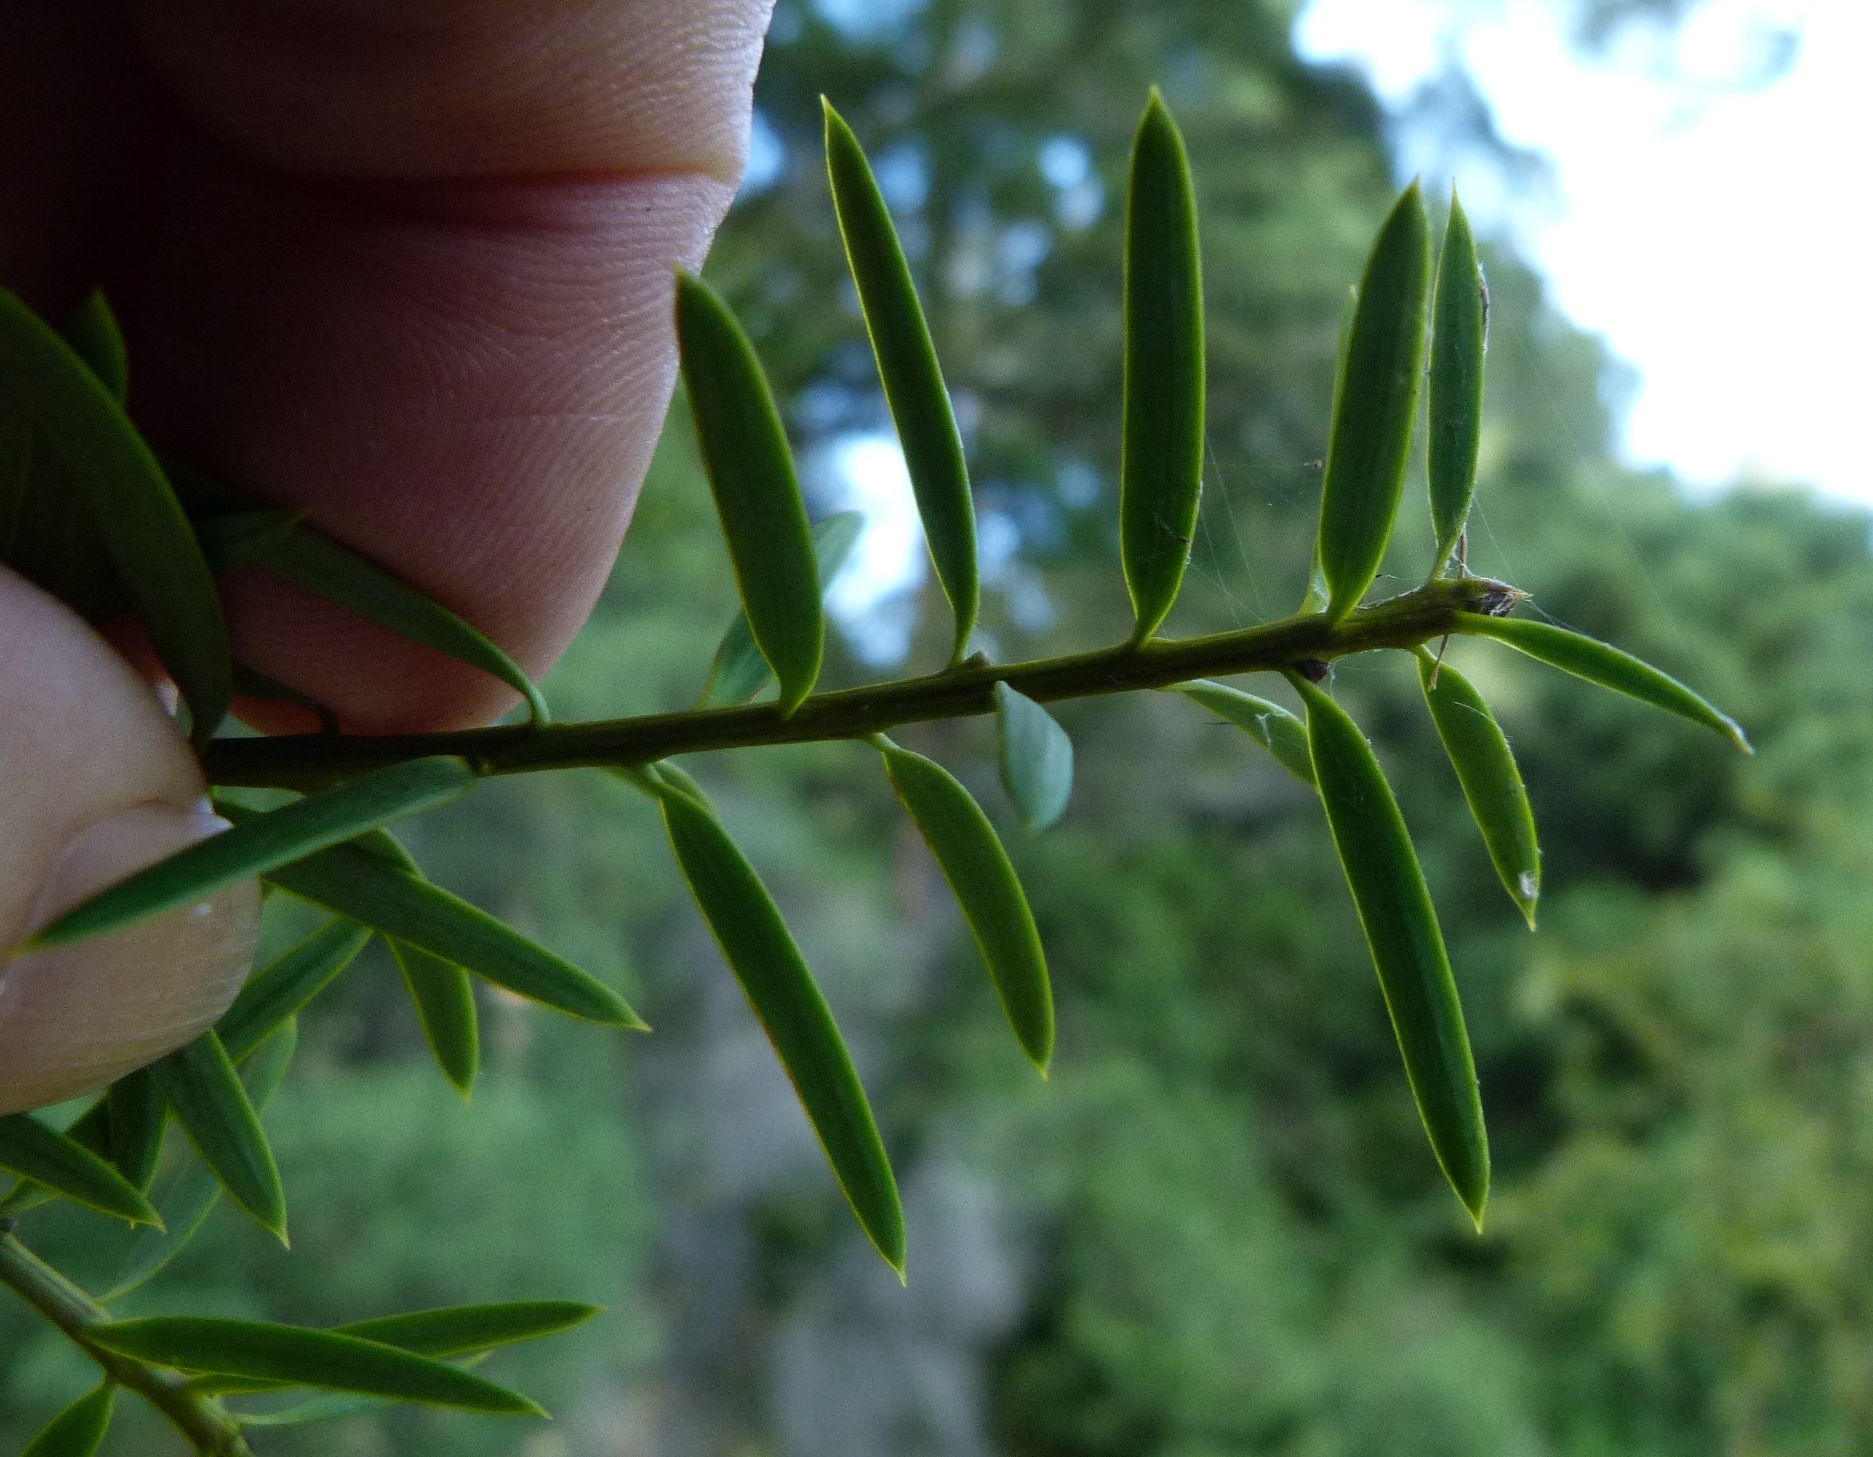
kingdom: Plantae
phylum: Tracheophyta
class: Pinopsida
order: Pinales
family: Podocarpaceae
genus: Podocarpus
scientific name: Podocarpus totara
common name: Totara
